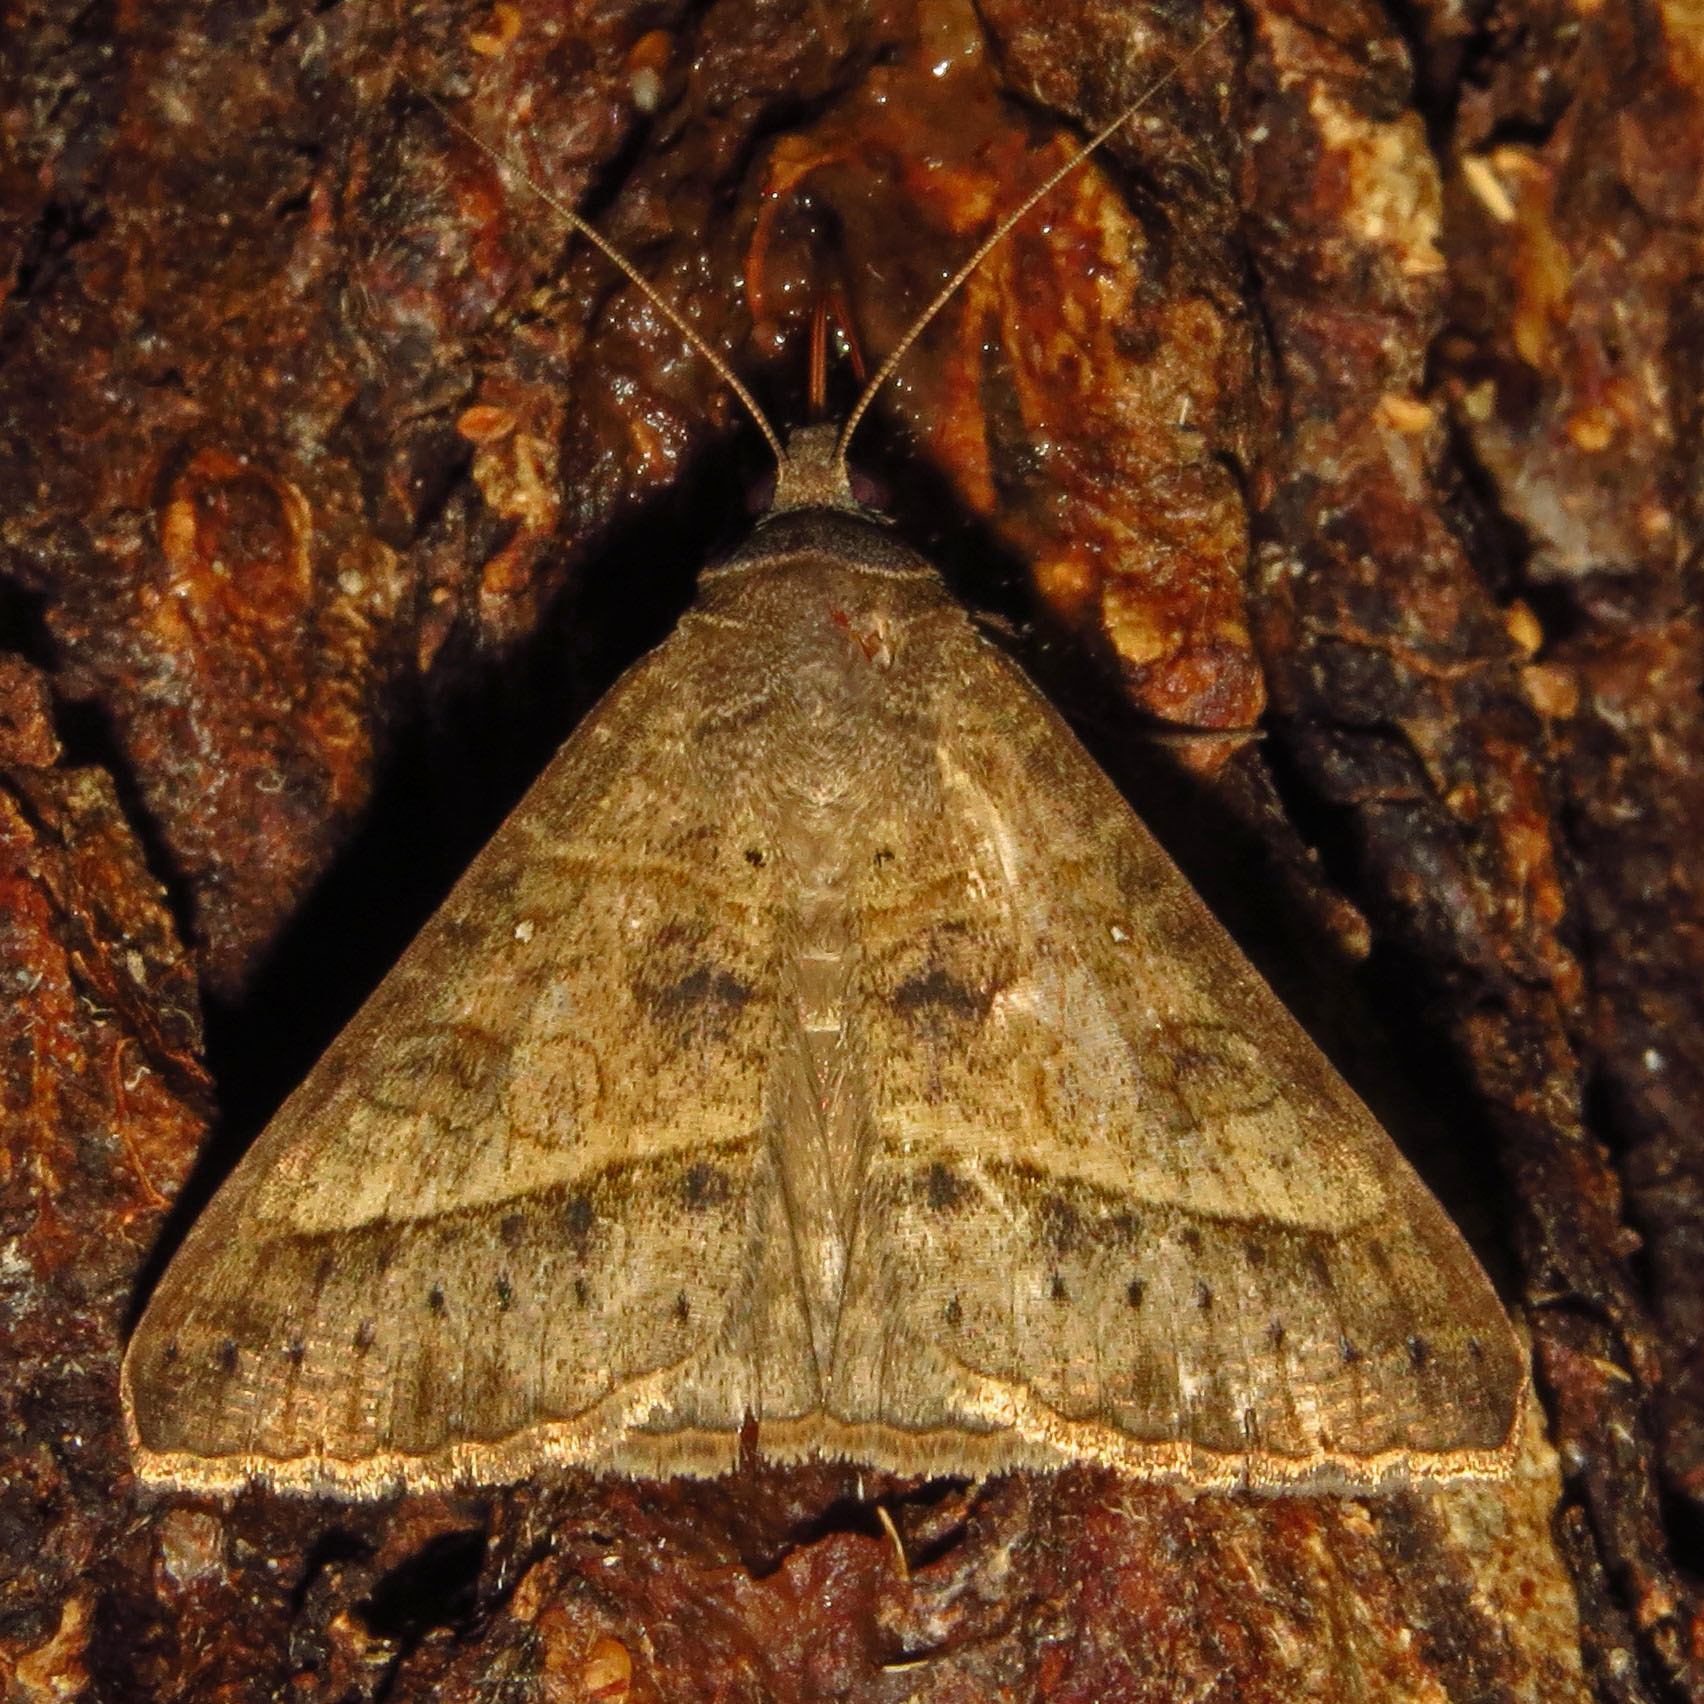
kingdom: Animalia
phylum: Arthropoda
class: Insecta
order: Lepidoptera
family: Erebidae
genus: Mocis
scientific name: Mocis texana
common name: Texas mocis moth
